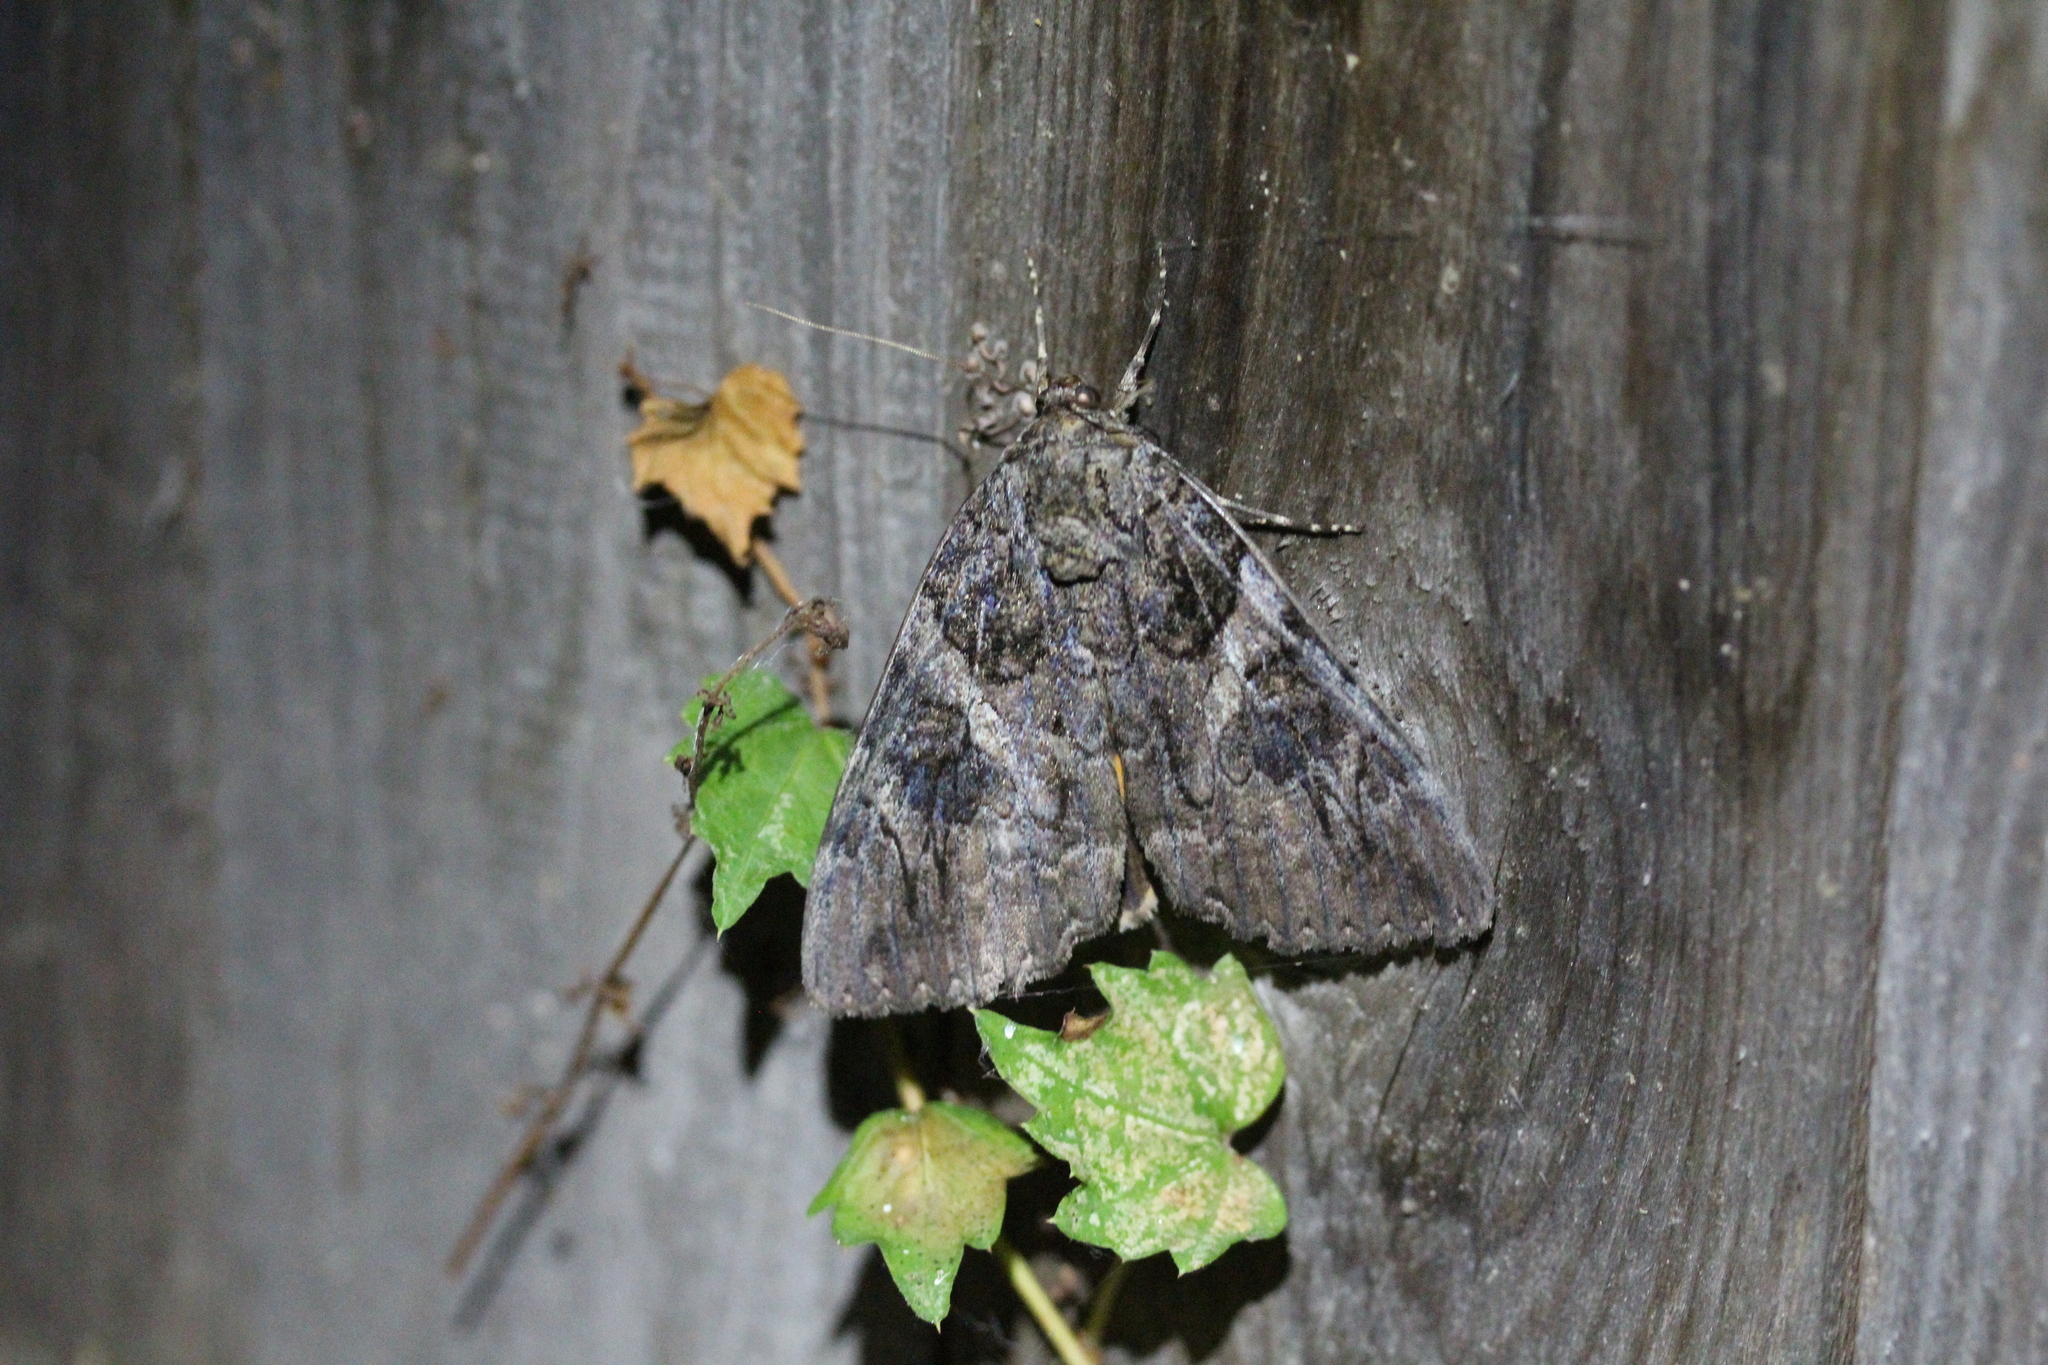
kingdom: Animalia
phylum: Arthropoda
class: Insecta
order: Lepidoptera
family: Erebidae
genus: Catocala
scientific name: Catocala piatrix
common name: The penitent underwing
